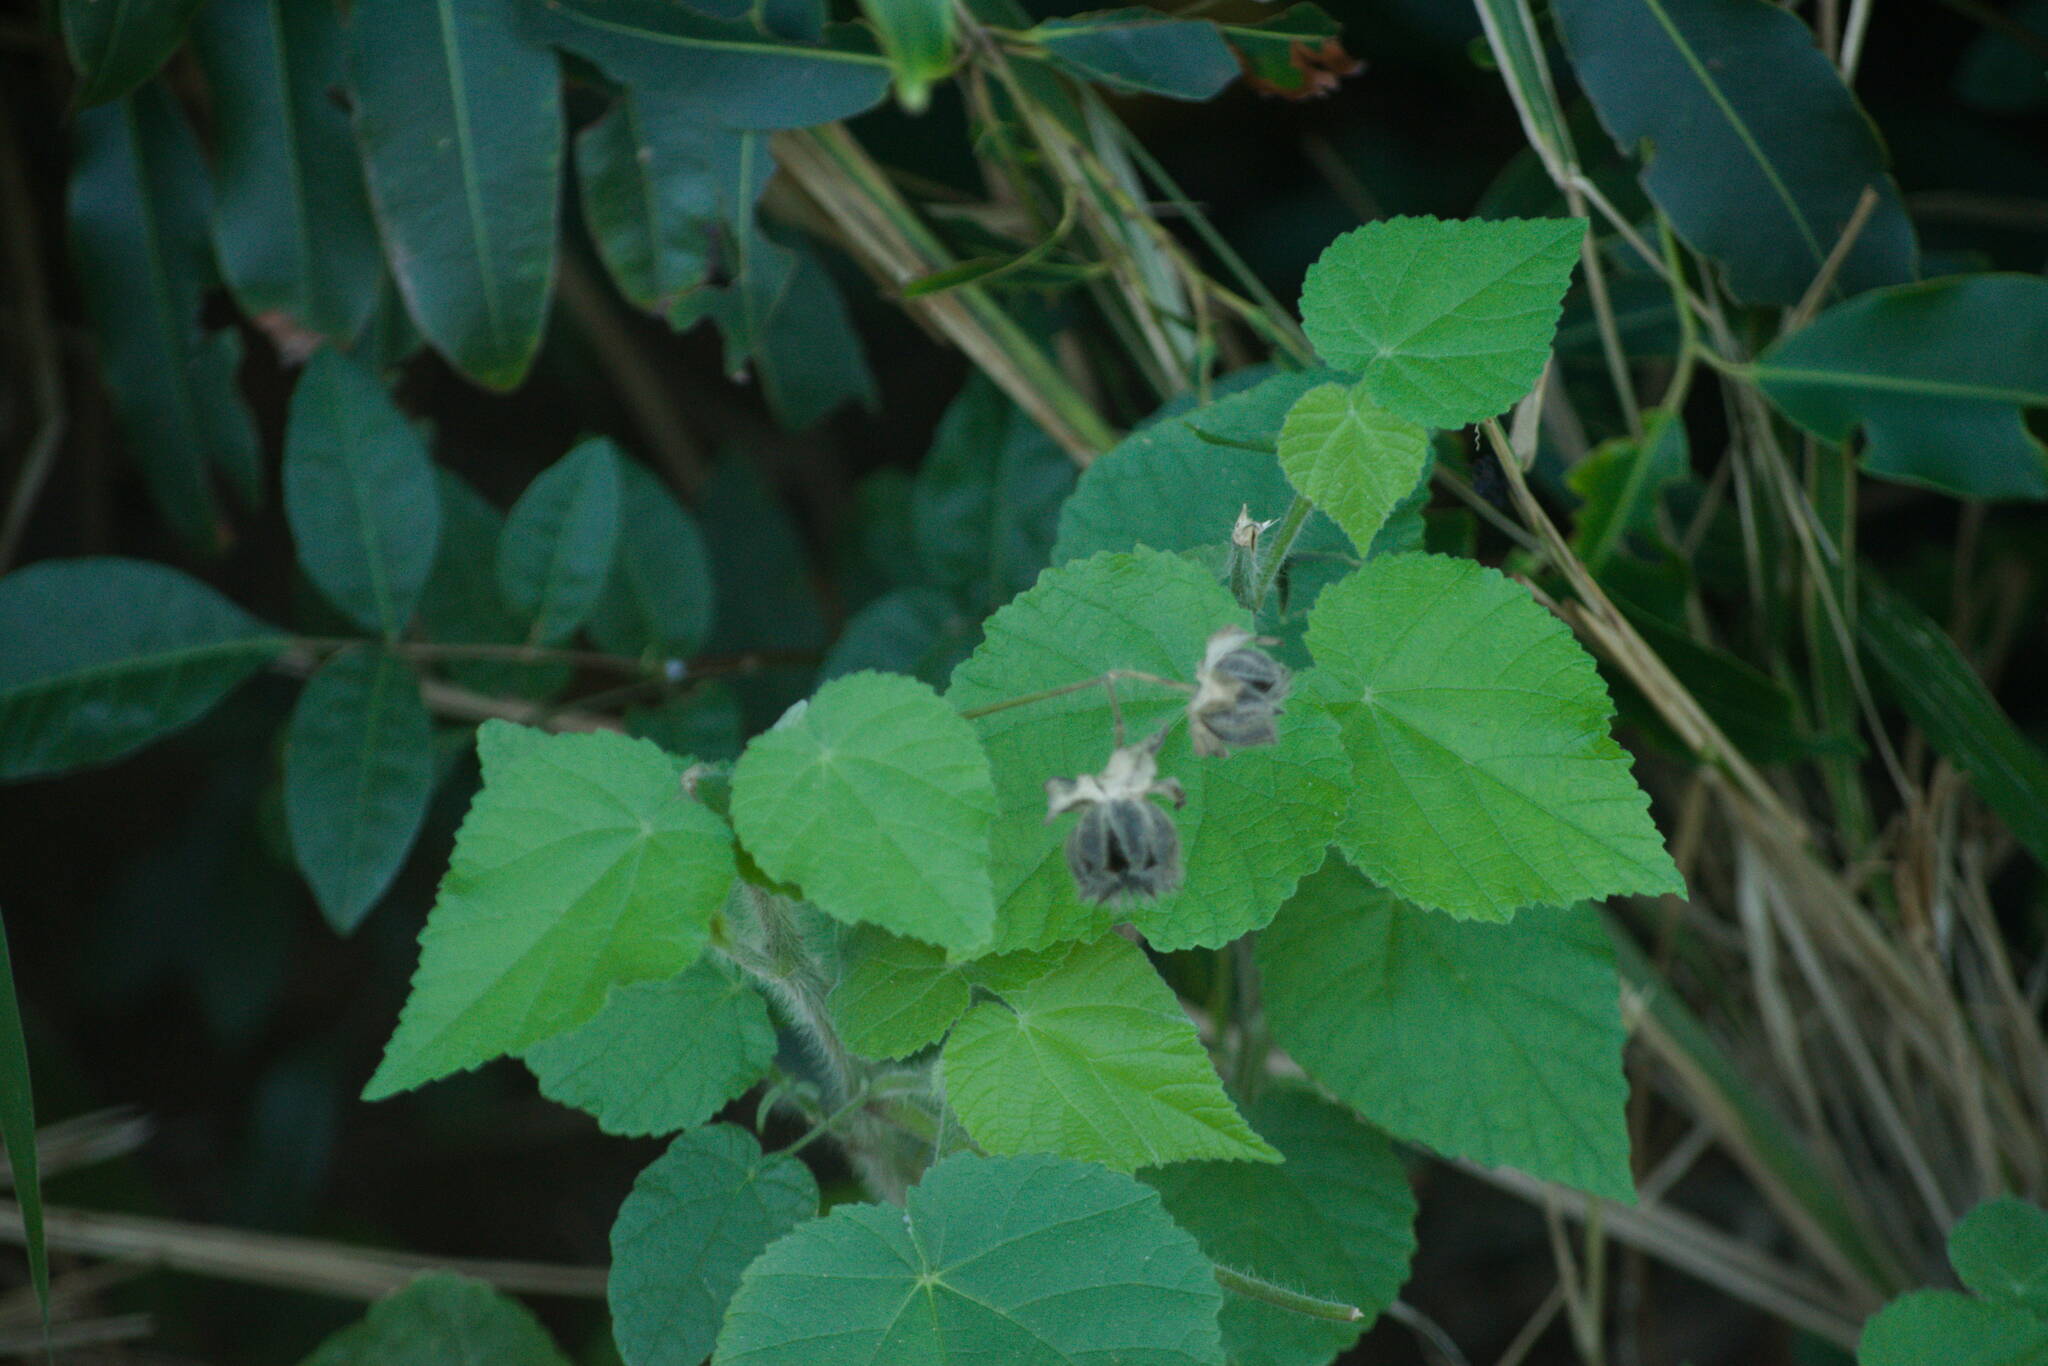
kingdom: Plantae
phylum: Tracheophyta
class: Magnoliopsida
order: Malvales
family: Malvaceae
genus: Abutilon
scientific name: Abutilon grandifolium
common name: Hairy abutilon
